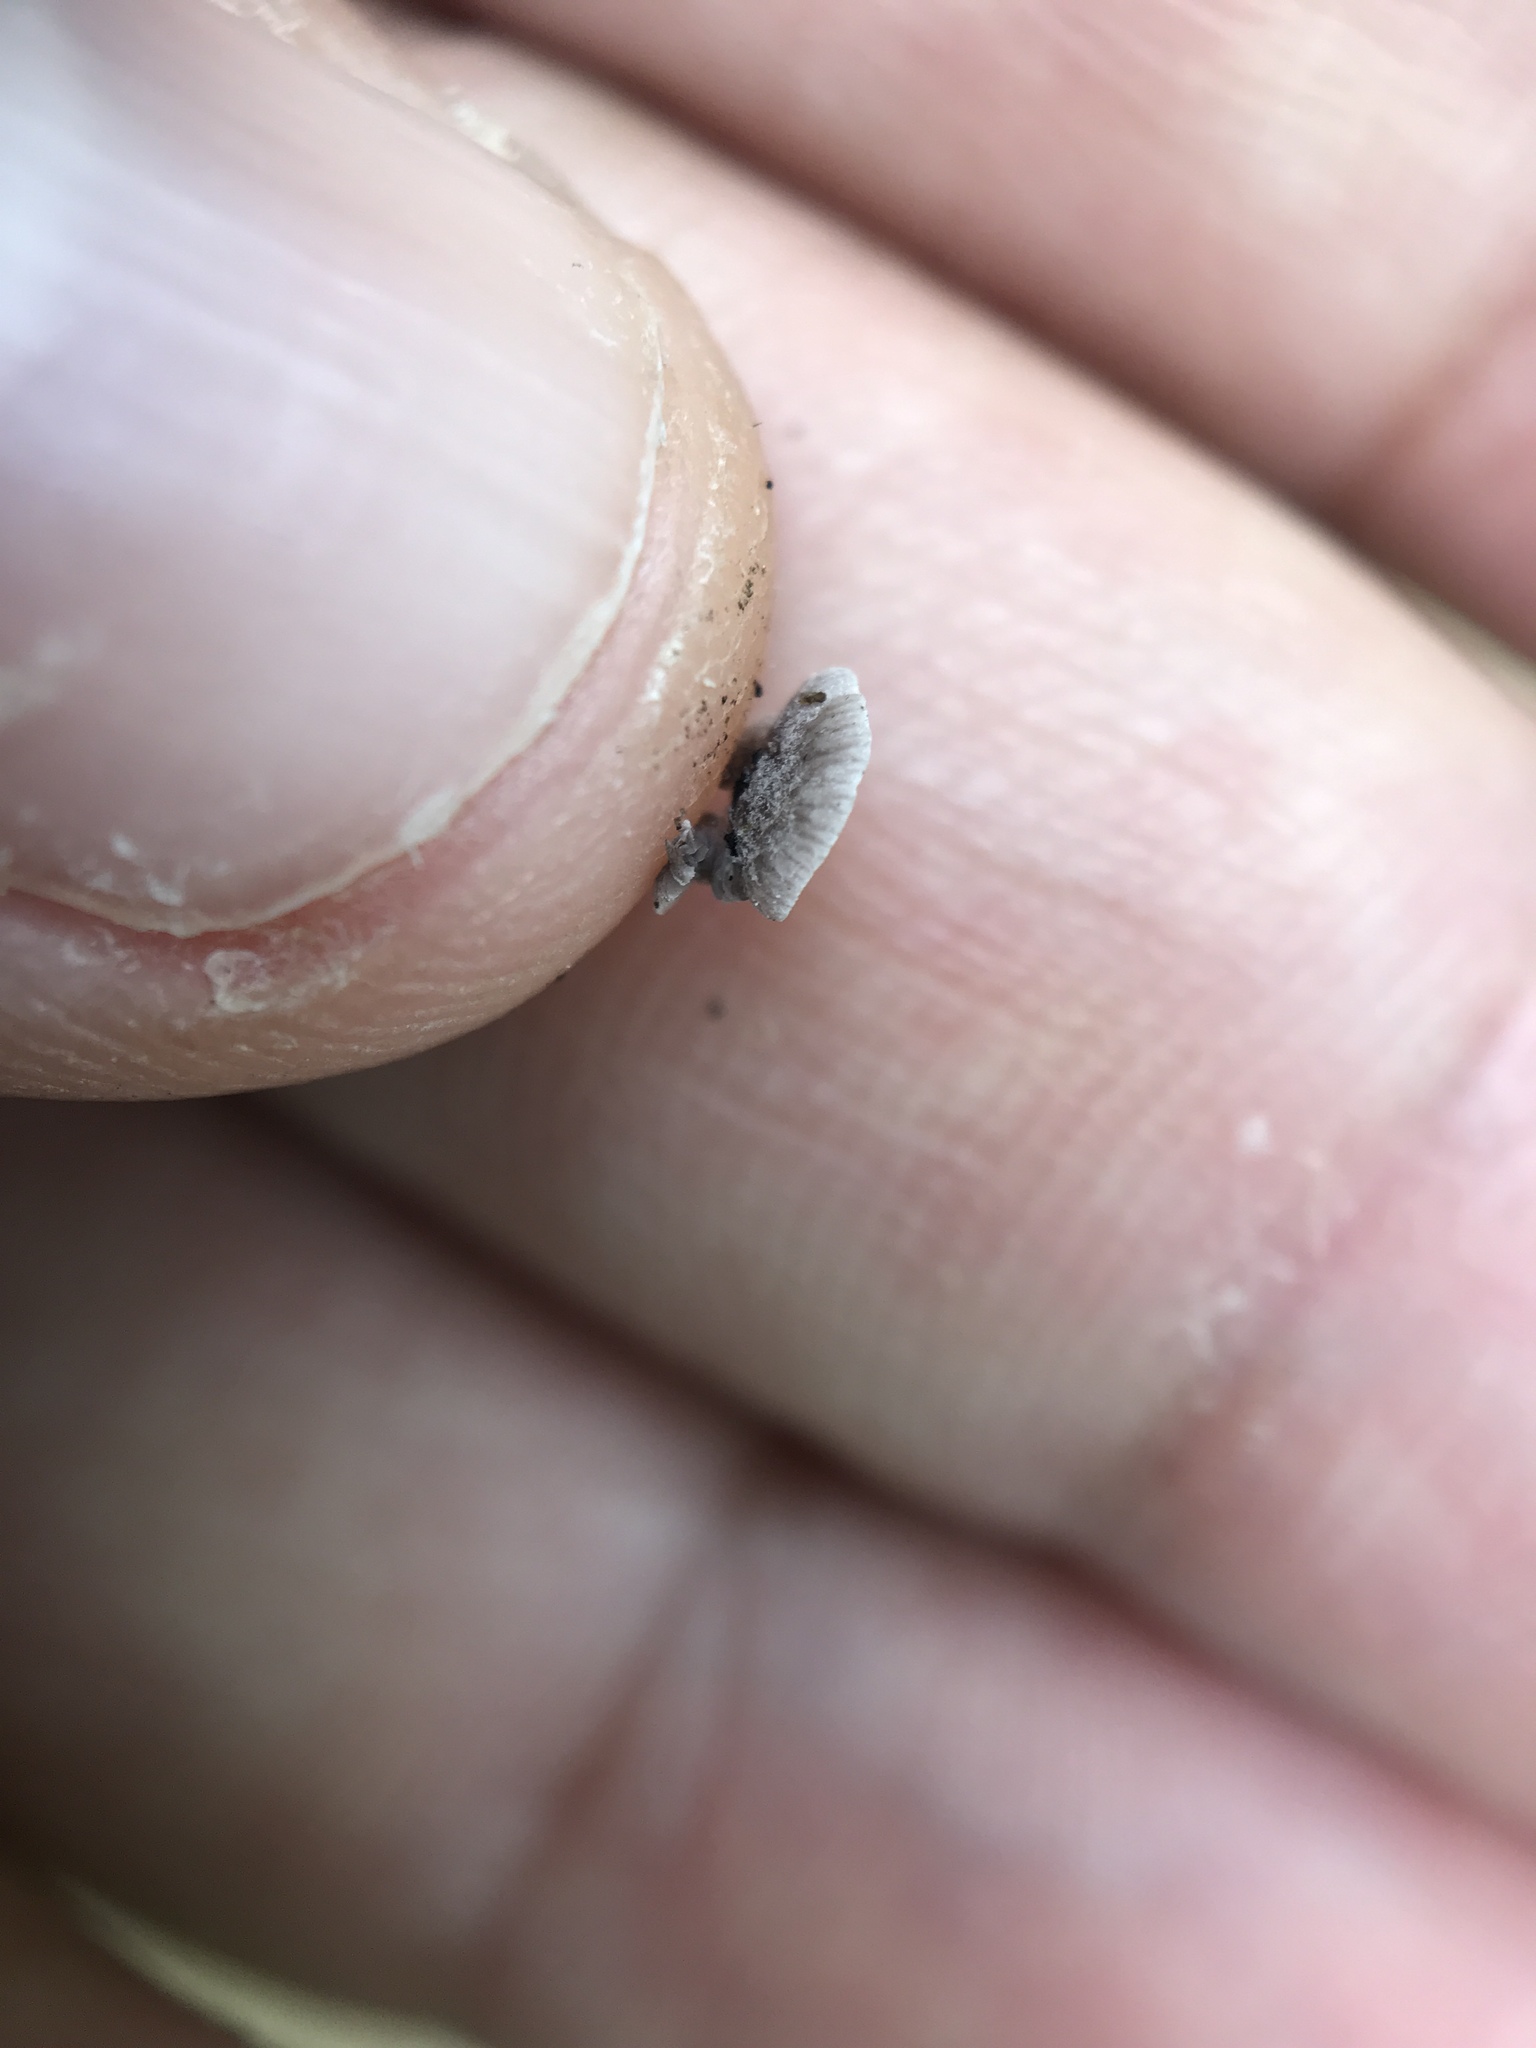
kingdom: Fungi
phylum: Basidiomycota
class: Agaricomycetes
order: Agaricales
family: Pleurotaceae
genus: Resupinatus
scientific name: Resupinatus applicatus
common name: Smoked oysterling
